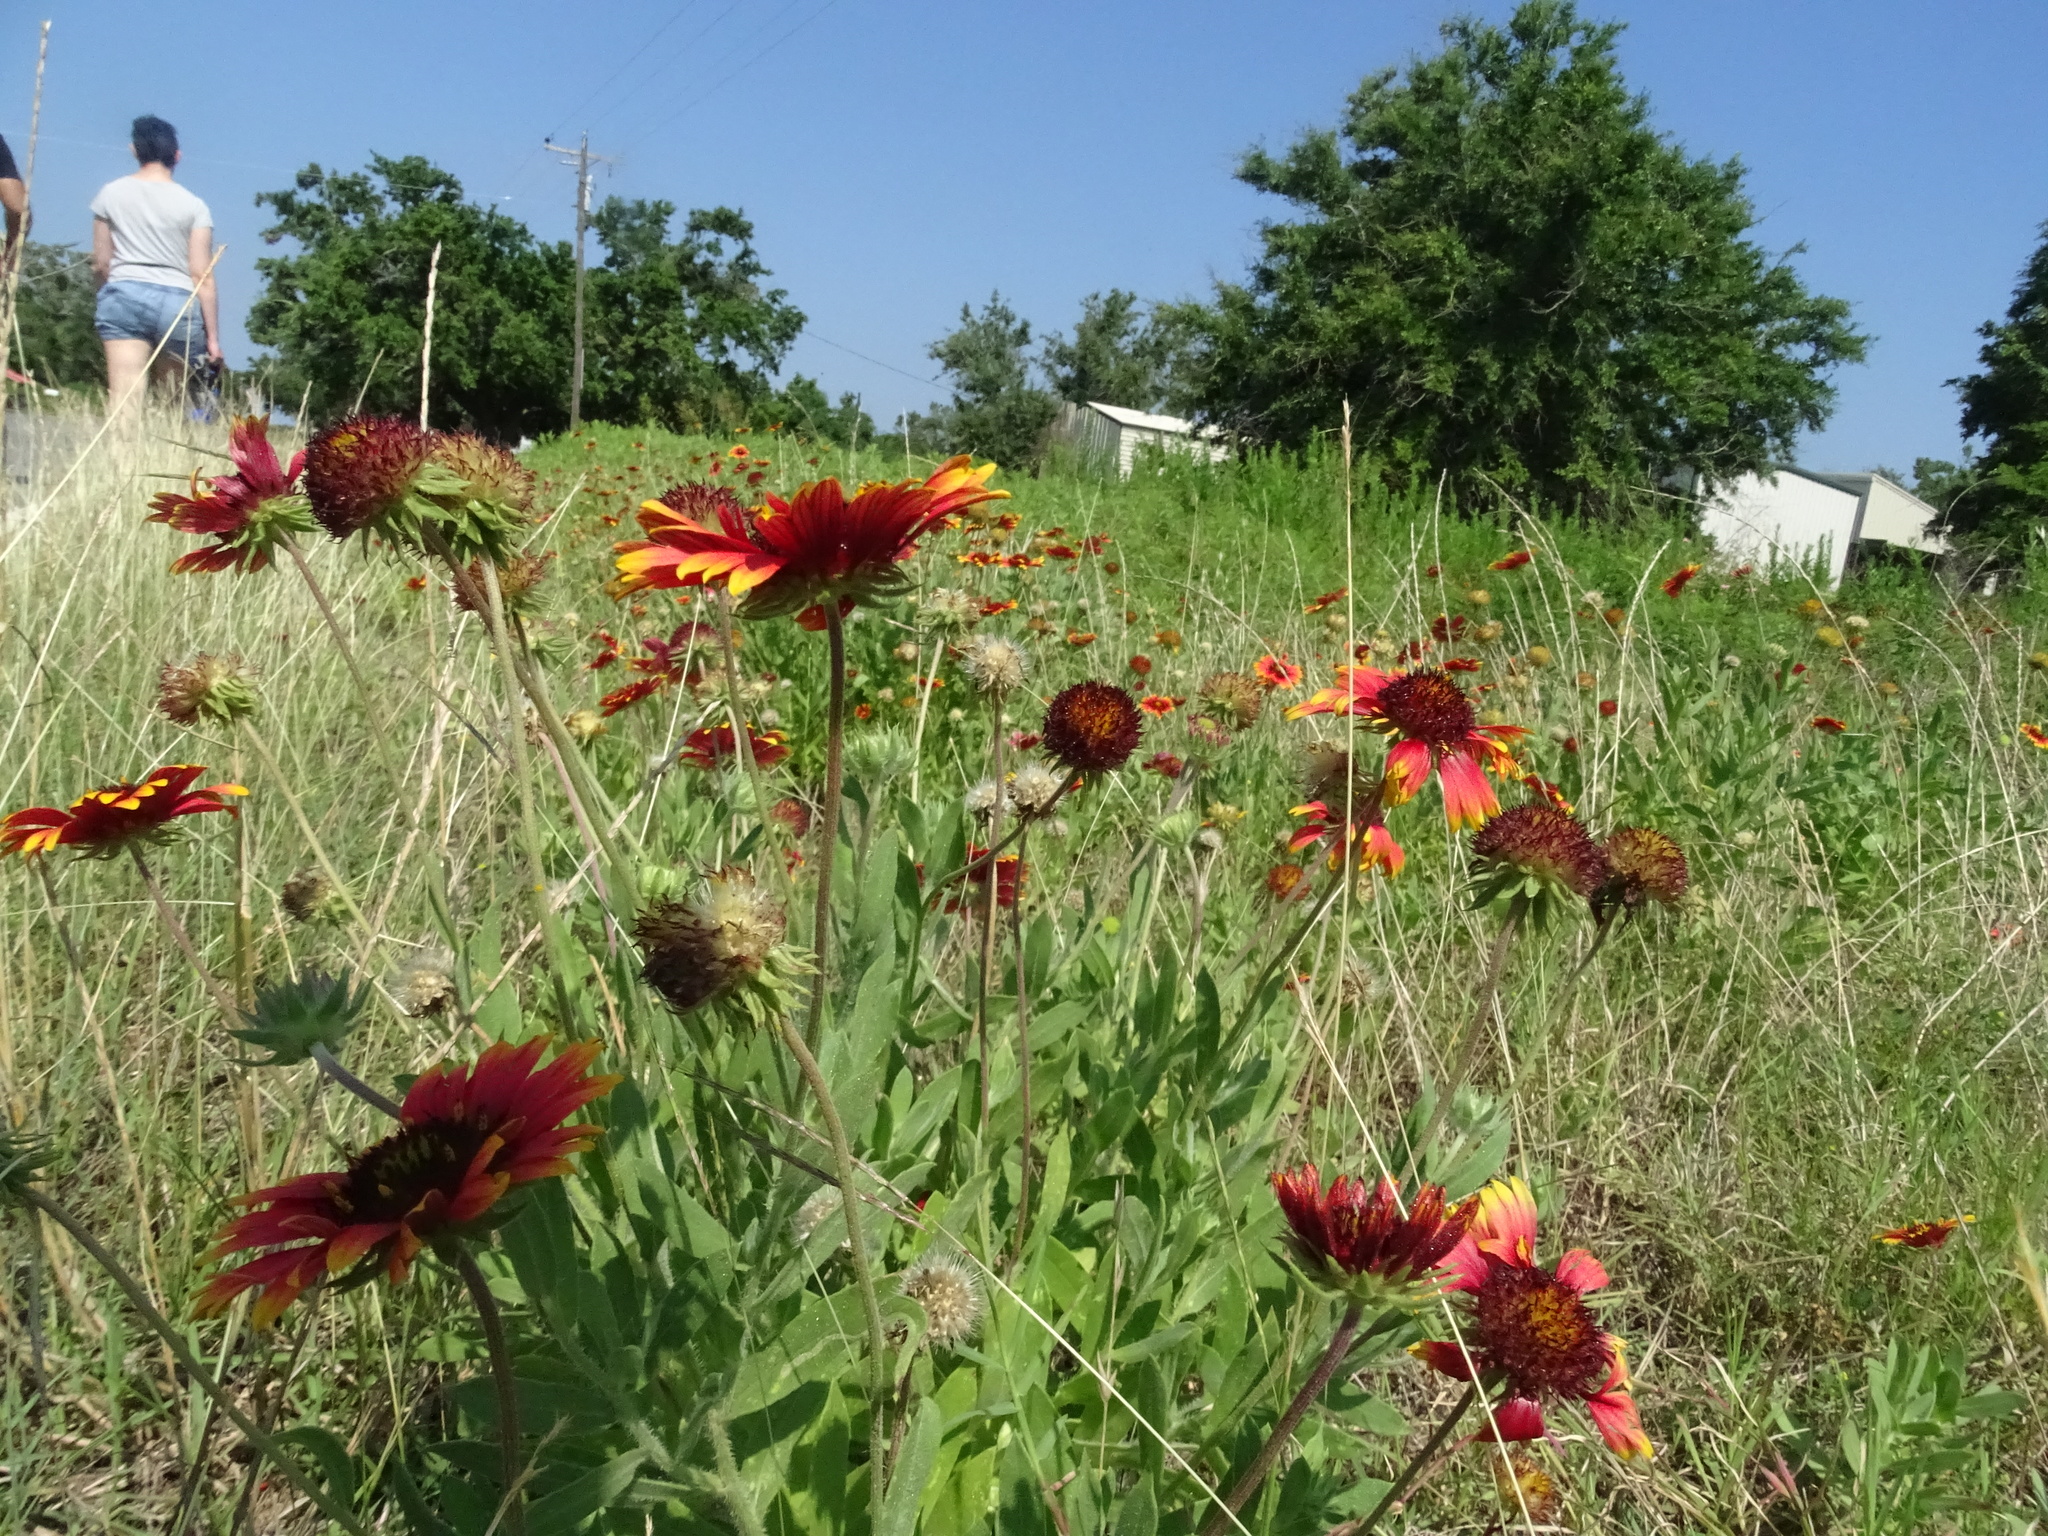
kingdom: Plantae
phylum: Tracheophyta
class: Magnoliopsida
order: Asterales
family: Asteraceae
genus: Gaillardia
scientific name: Gaillardia pulchella
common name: Firewheel
